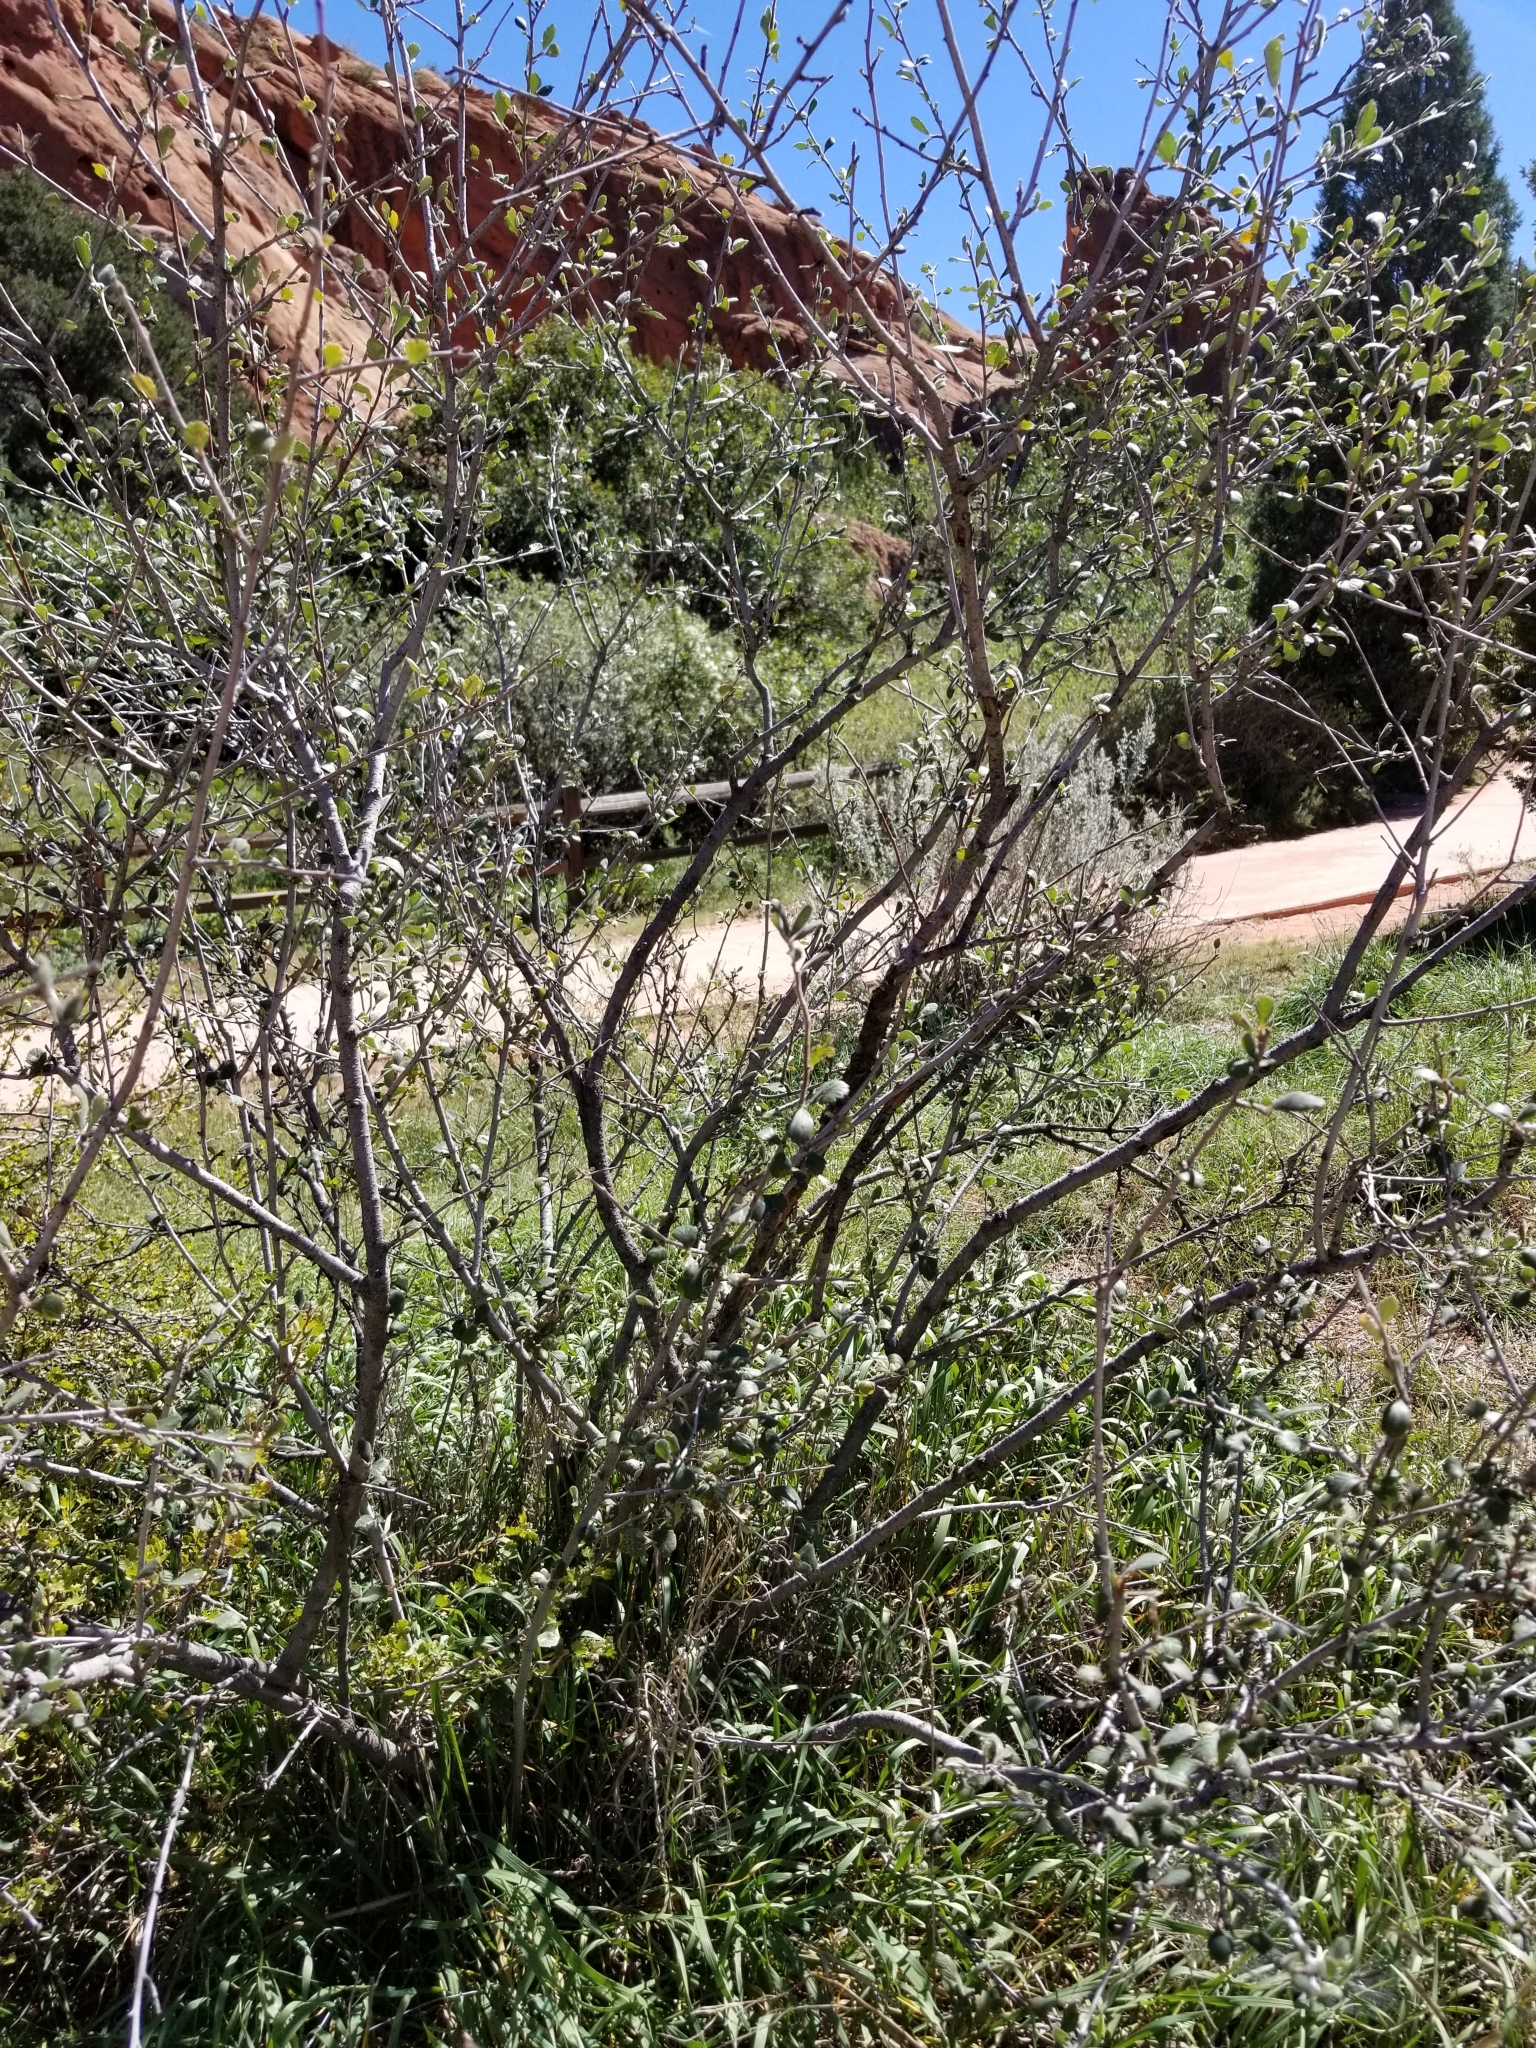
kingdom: Plantae
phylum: Tracheophyta
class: Magnoliopsida
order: Rosales
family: Rosaceae
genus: Cercocarpus
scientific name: Cercocarpus montanus
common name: Alder-leaf cercocarpus
